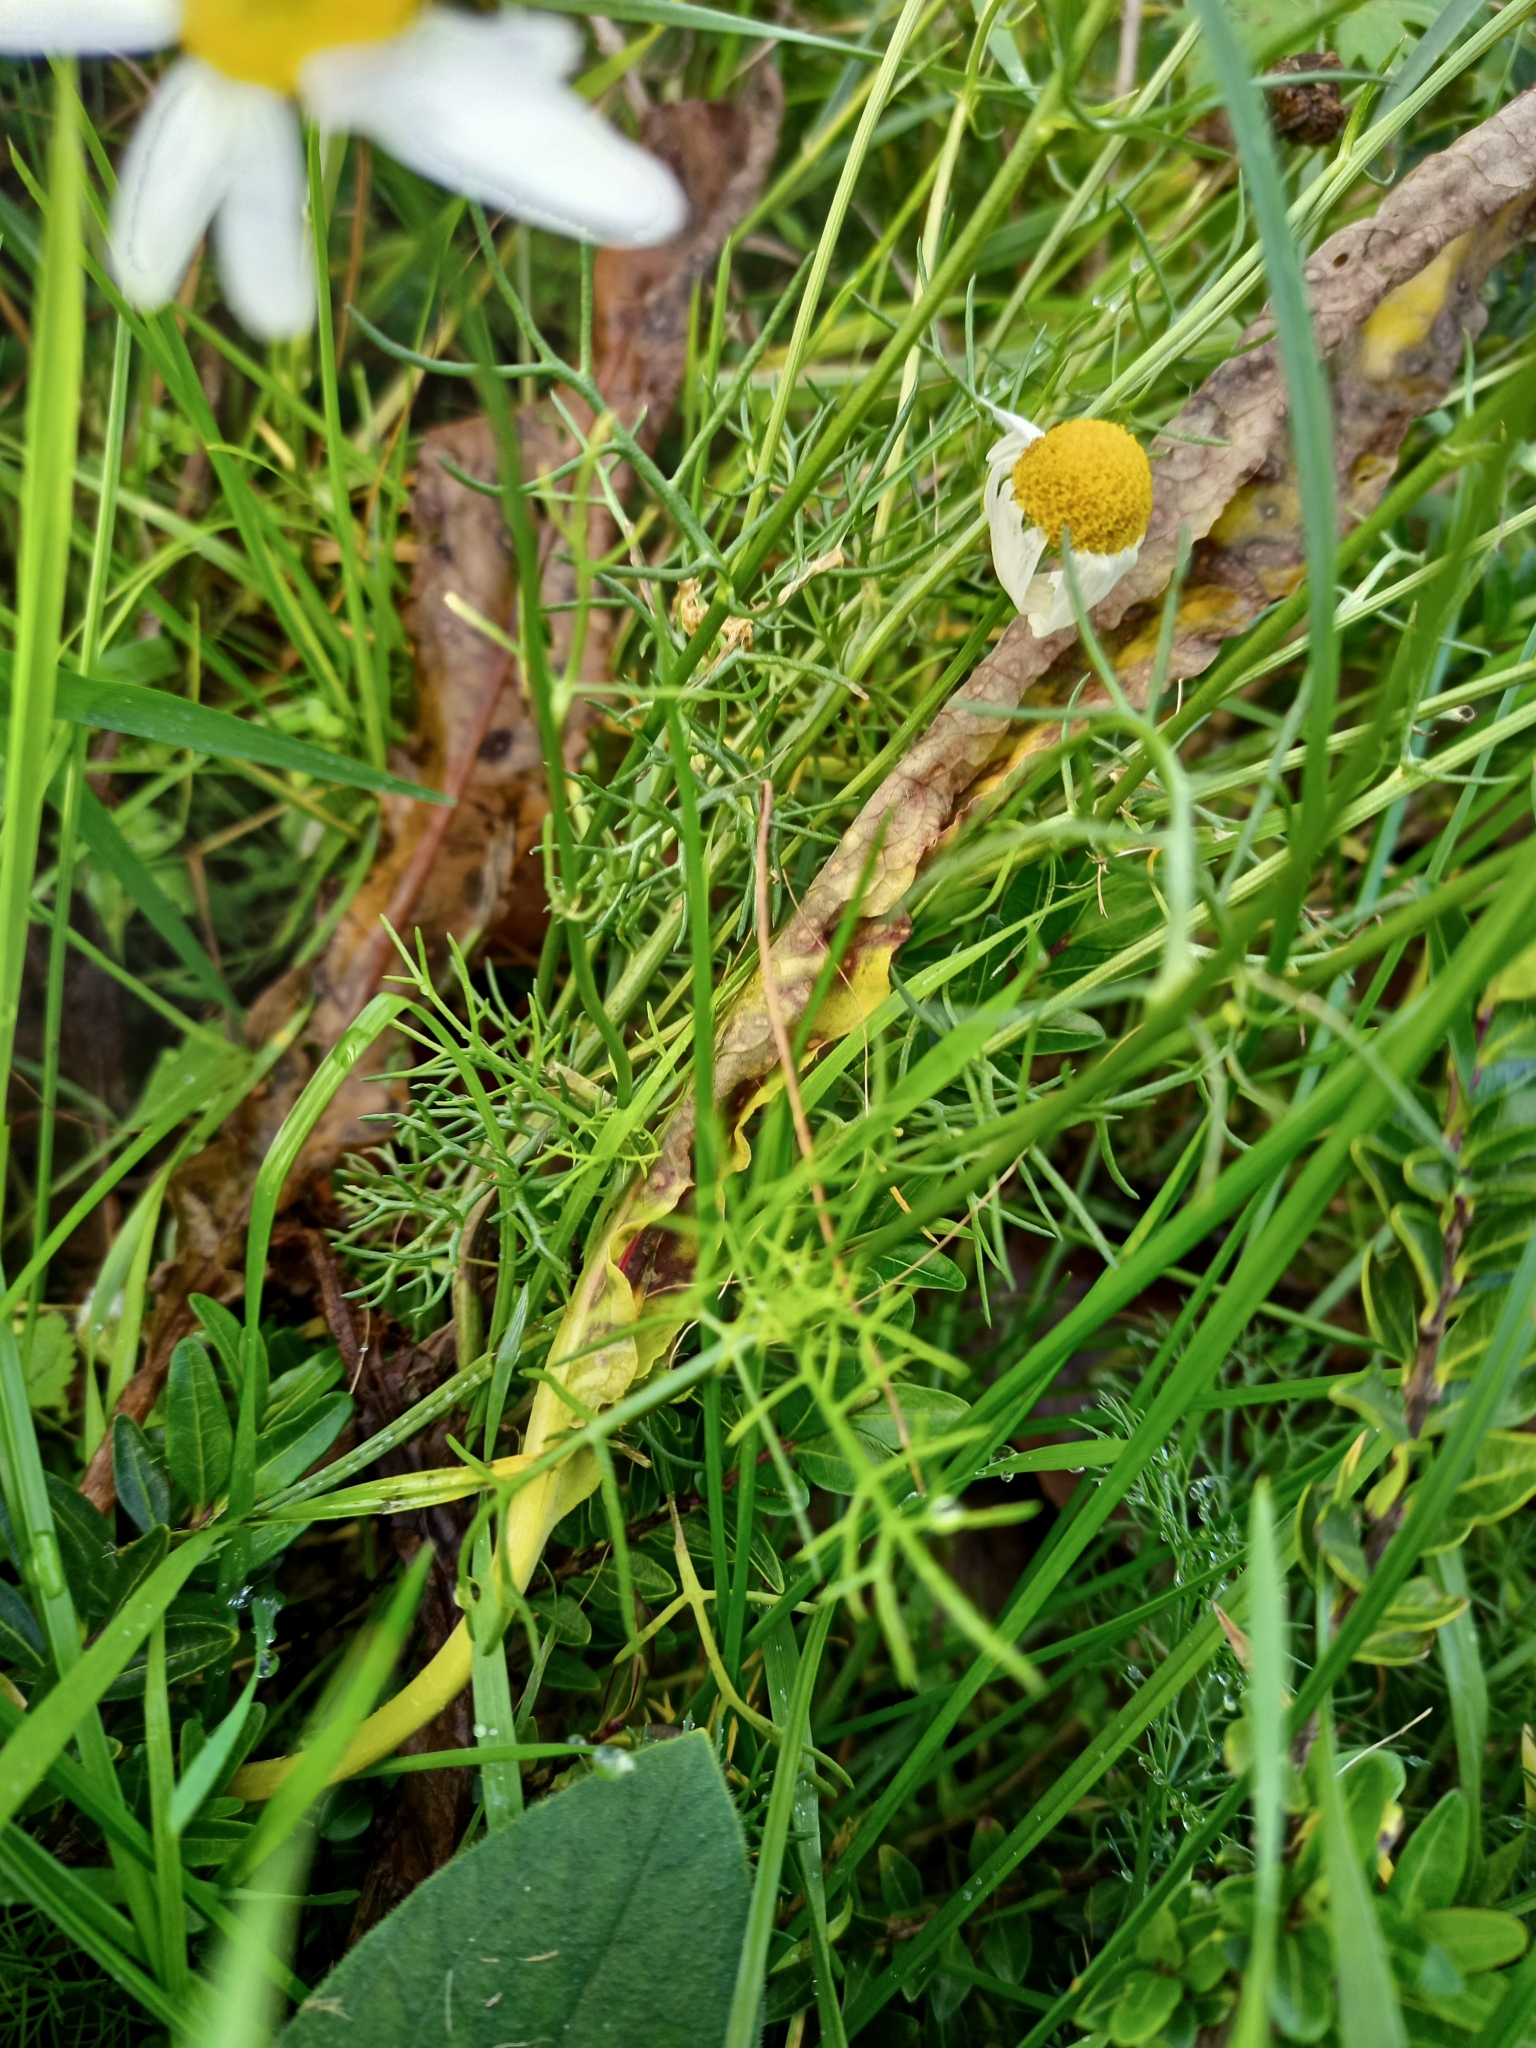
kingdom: Plantae
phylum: Tracheophyta
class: Magnoliopsida
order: Asterales
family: Asteraceae
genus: Matricaria
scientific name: Matricaria chamomilla
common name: Scented mayweed
